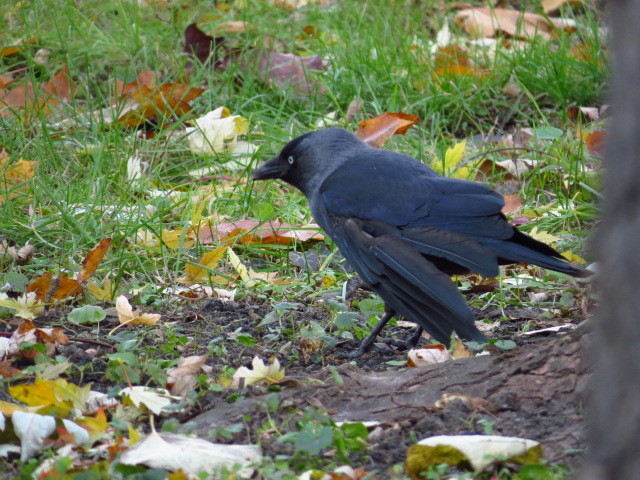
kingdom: Animalia
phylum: Chordata
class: Aves
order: Passeriformes
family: Corvidae
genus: Coloeus
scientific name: Coloeus monedula
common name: Western jackdaw
